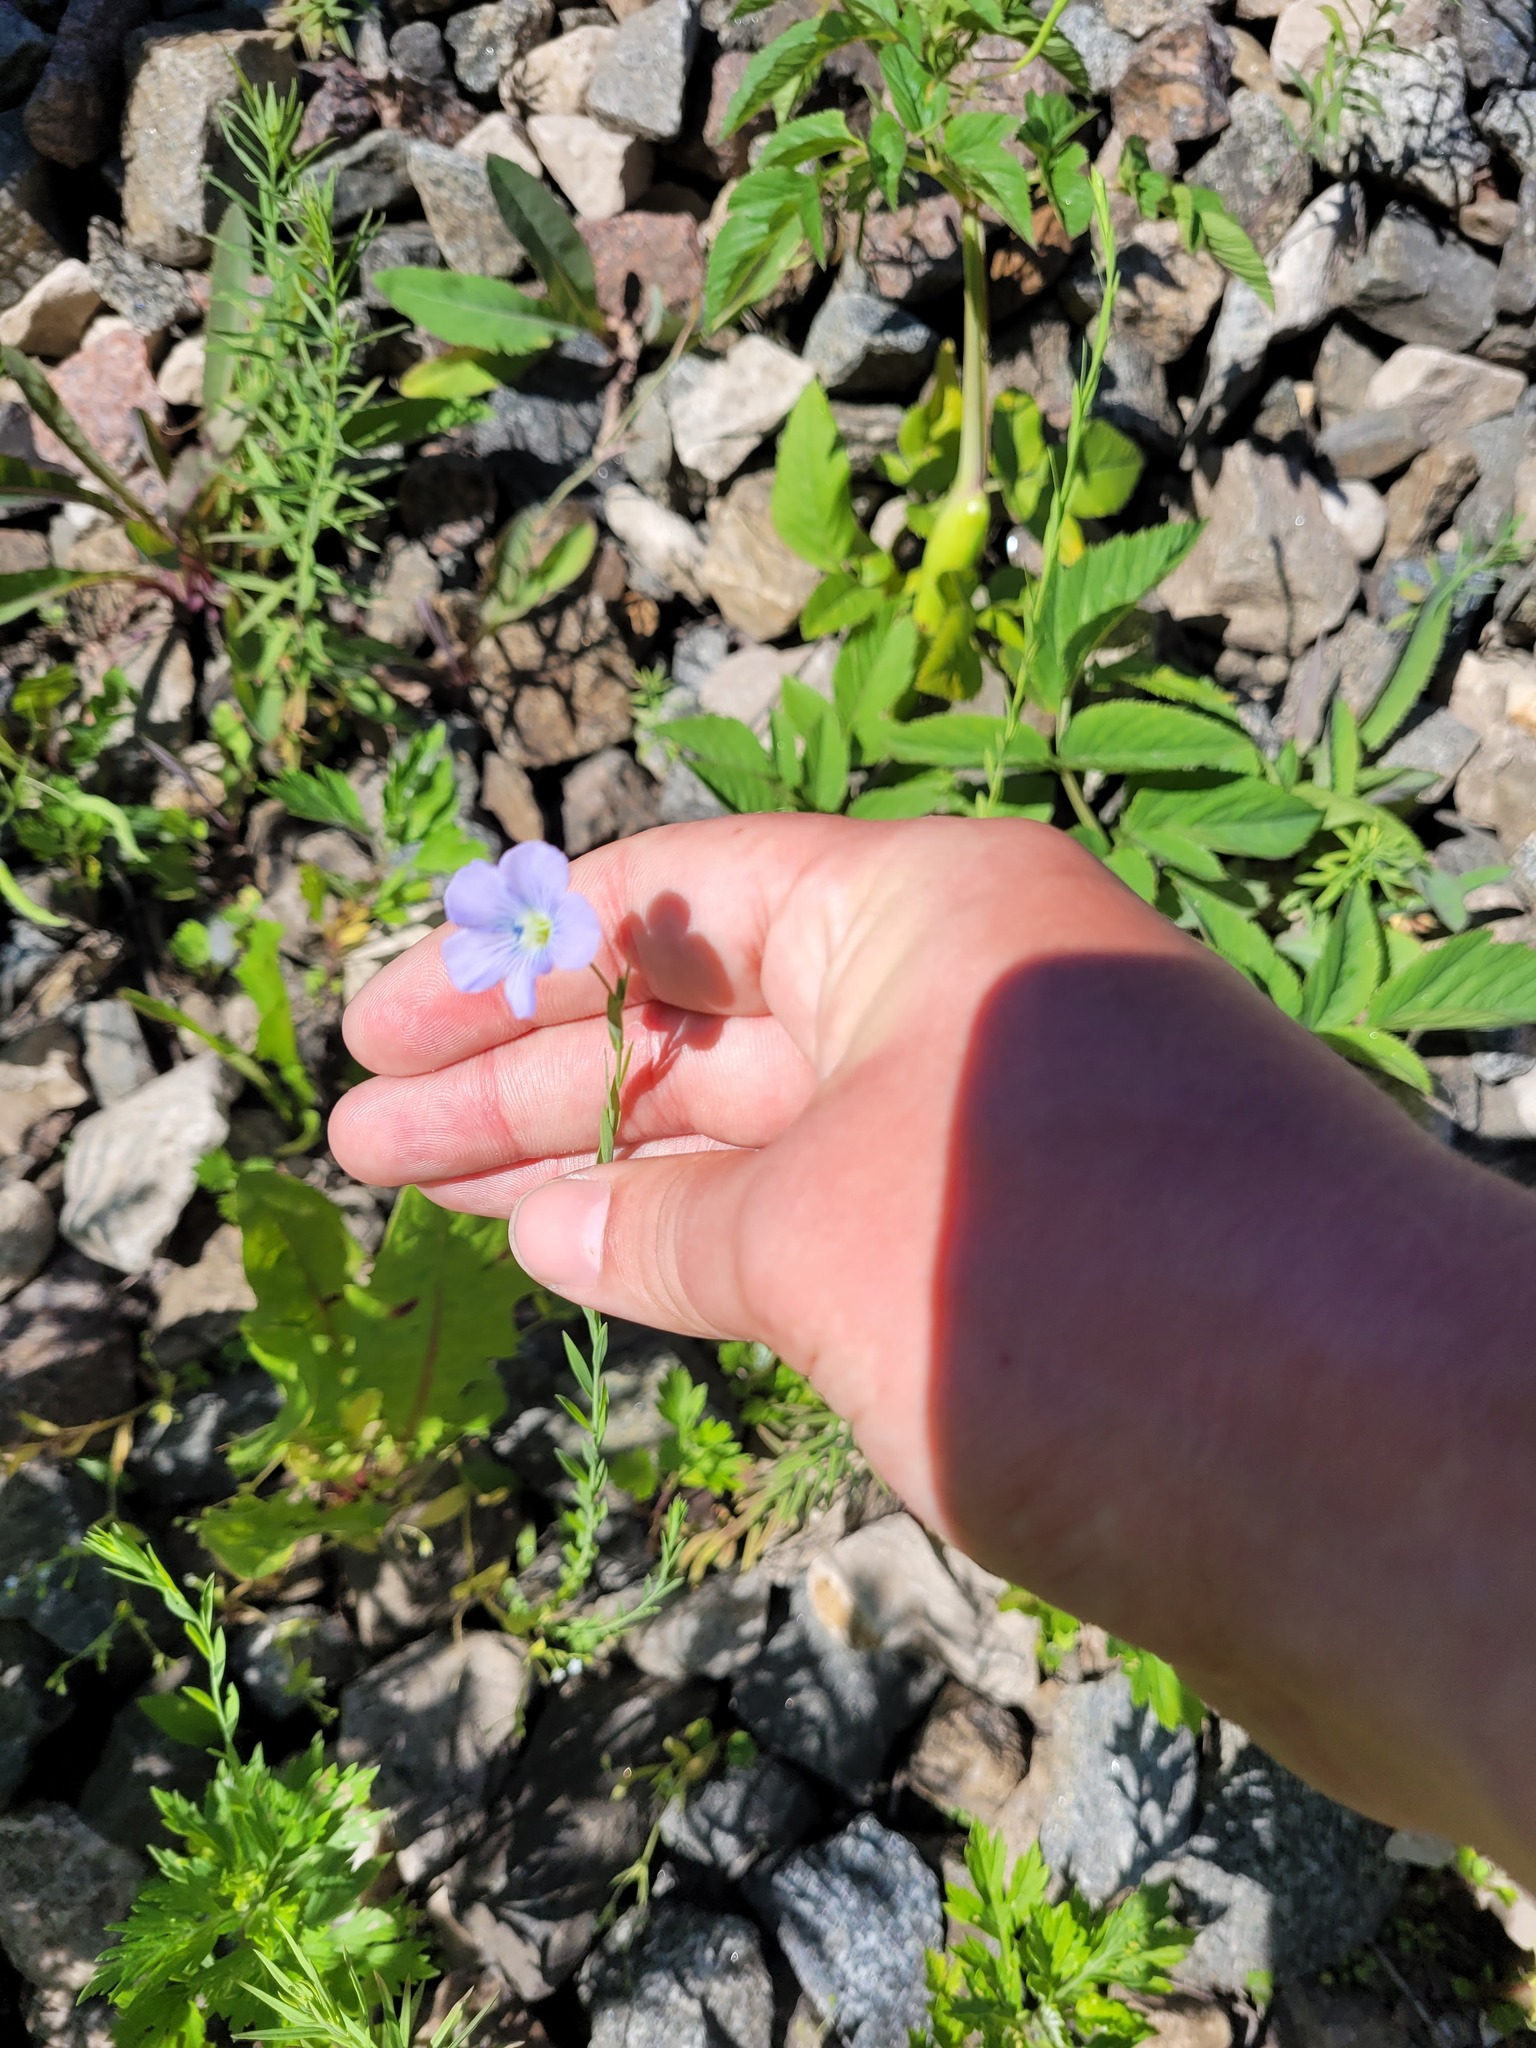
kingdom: Plantae
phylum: Tracheophyta
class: Magnoliopsida
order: Malpighiales
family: Linaceae
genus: Linum
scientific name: Linum usitatissimum
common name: Flax
